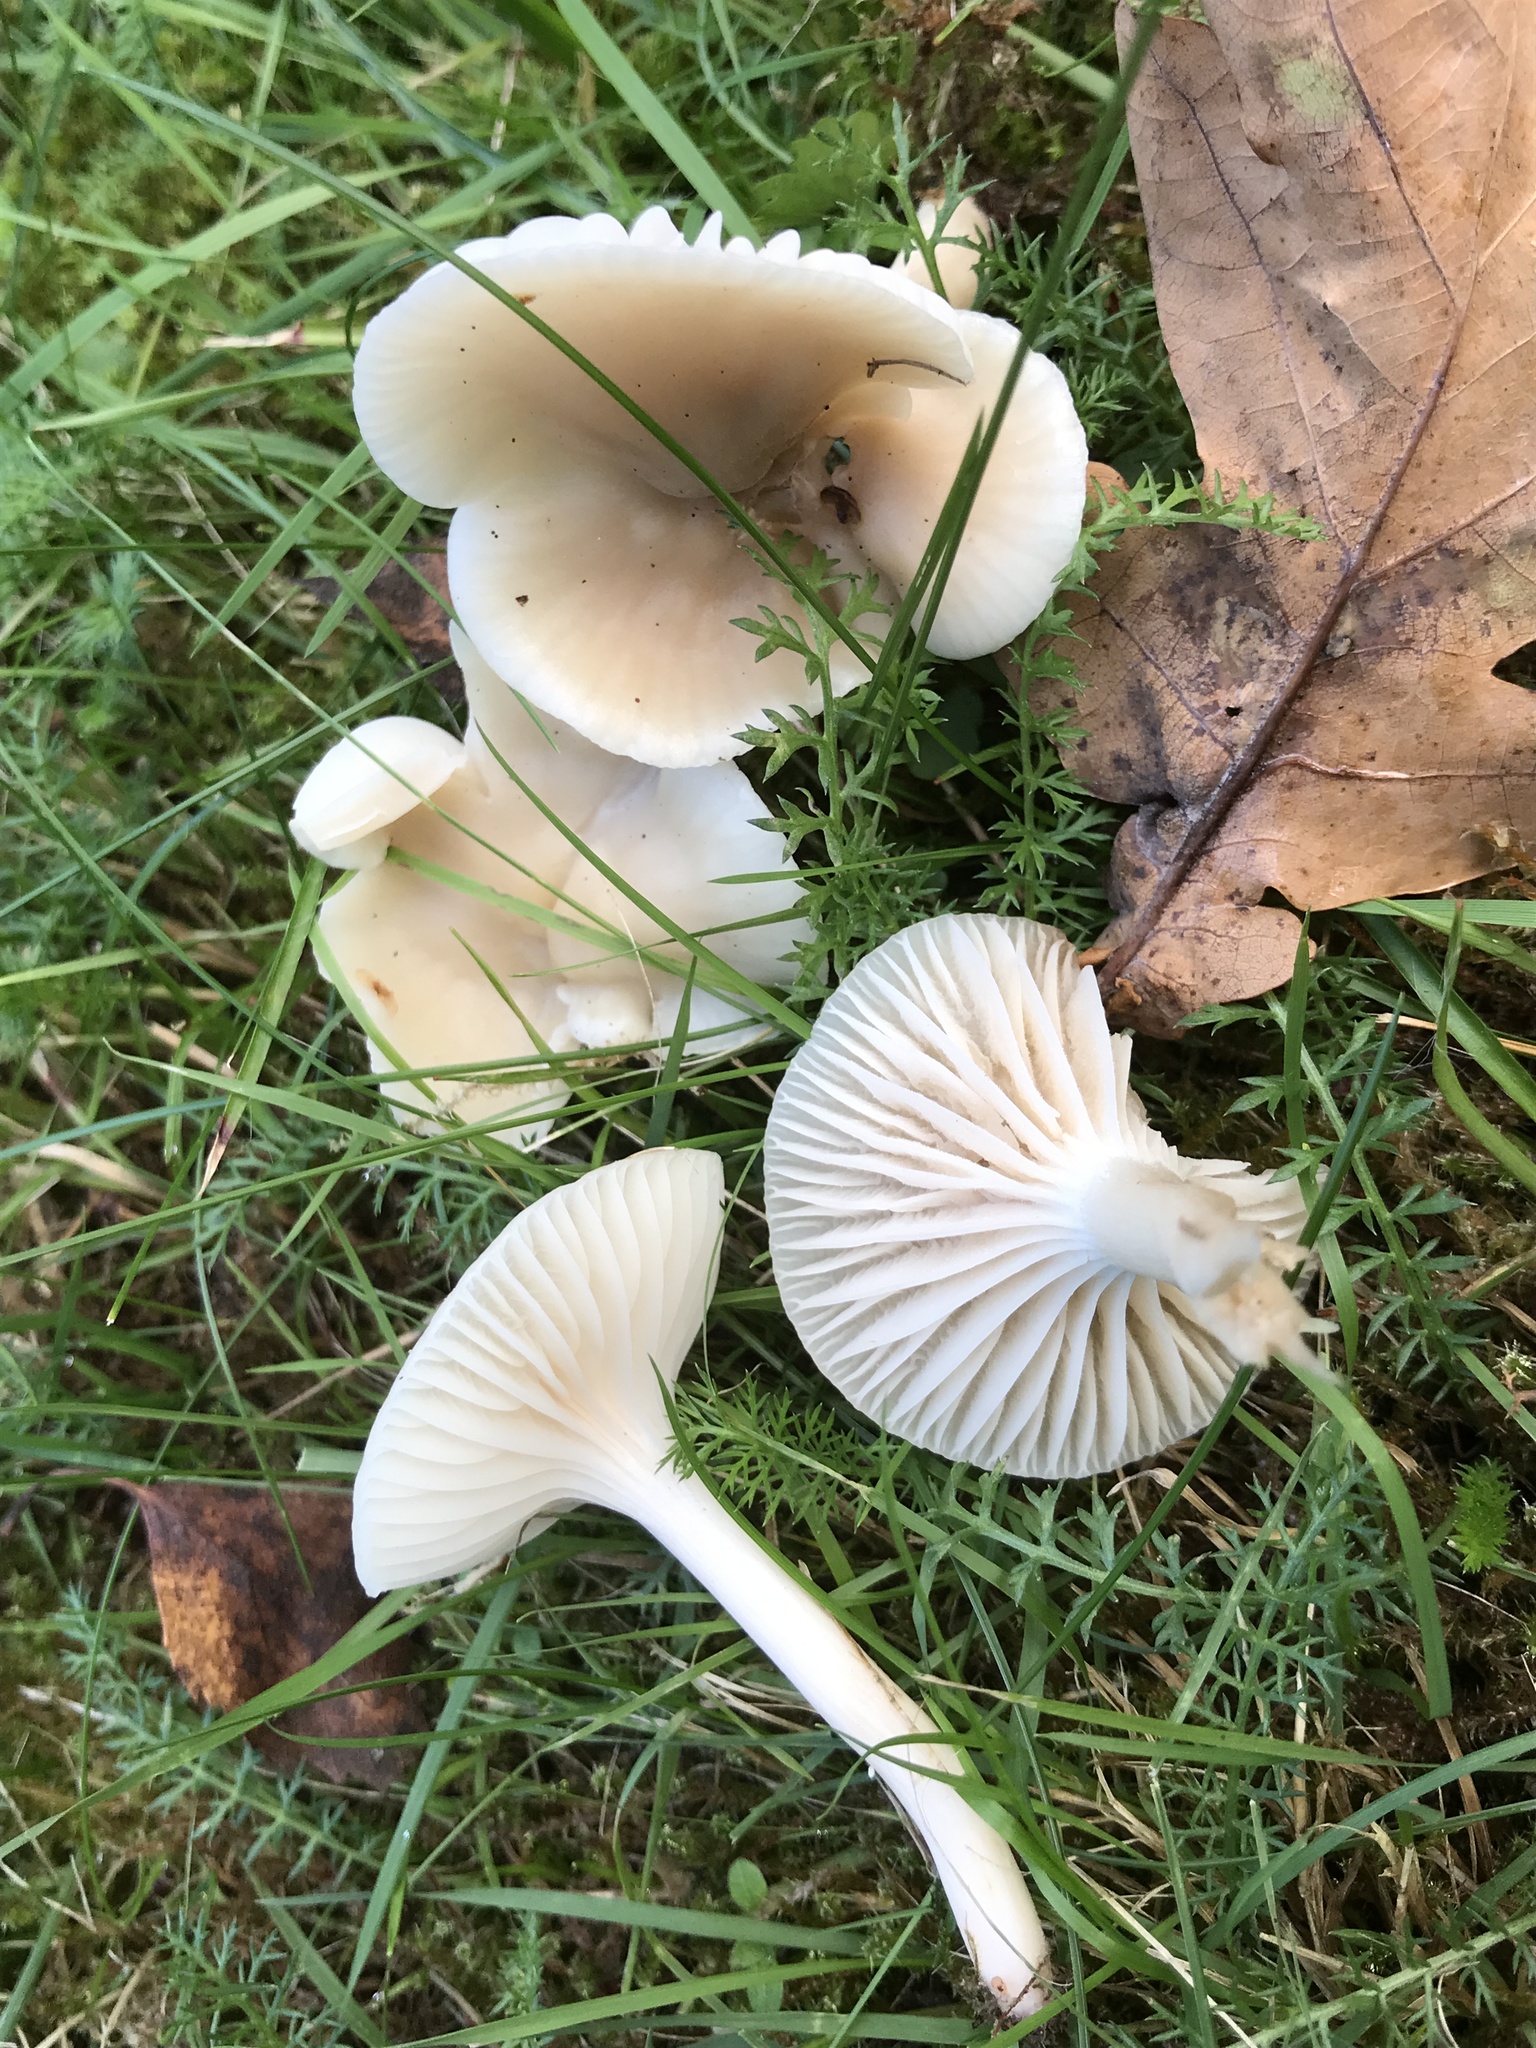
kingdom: Fungi
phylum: Basidiomycota
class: Agaricomycetes
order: Agaricales
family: Hygrophoraceae
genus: Cuphophyllus
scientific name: Cuphophyllus virgineus
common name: Snowy waxcap
